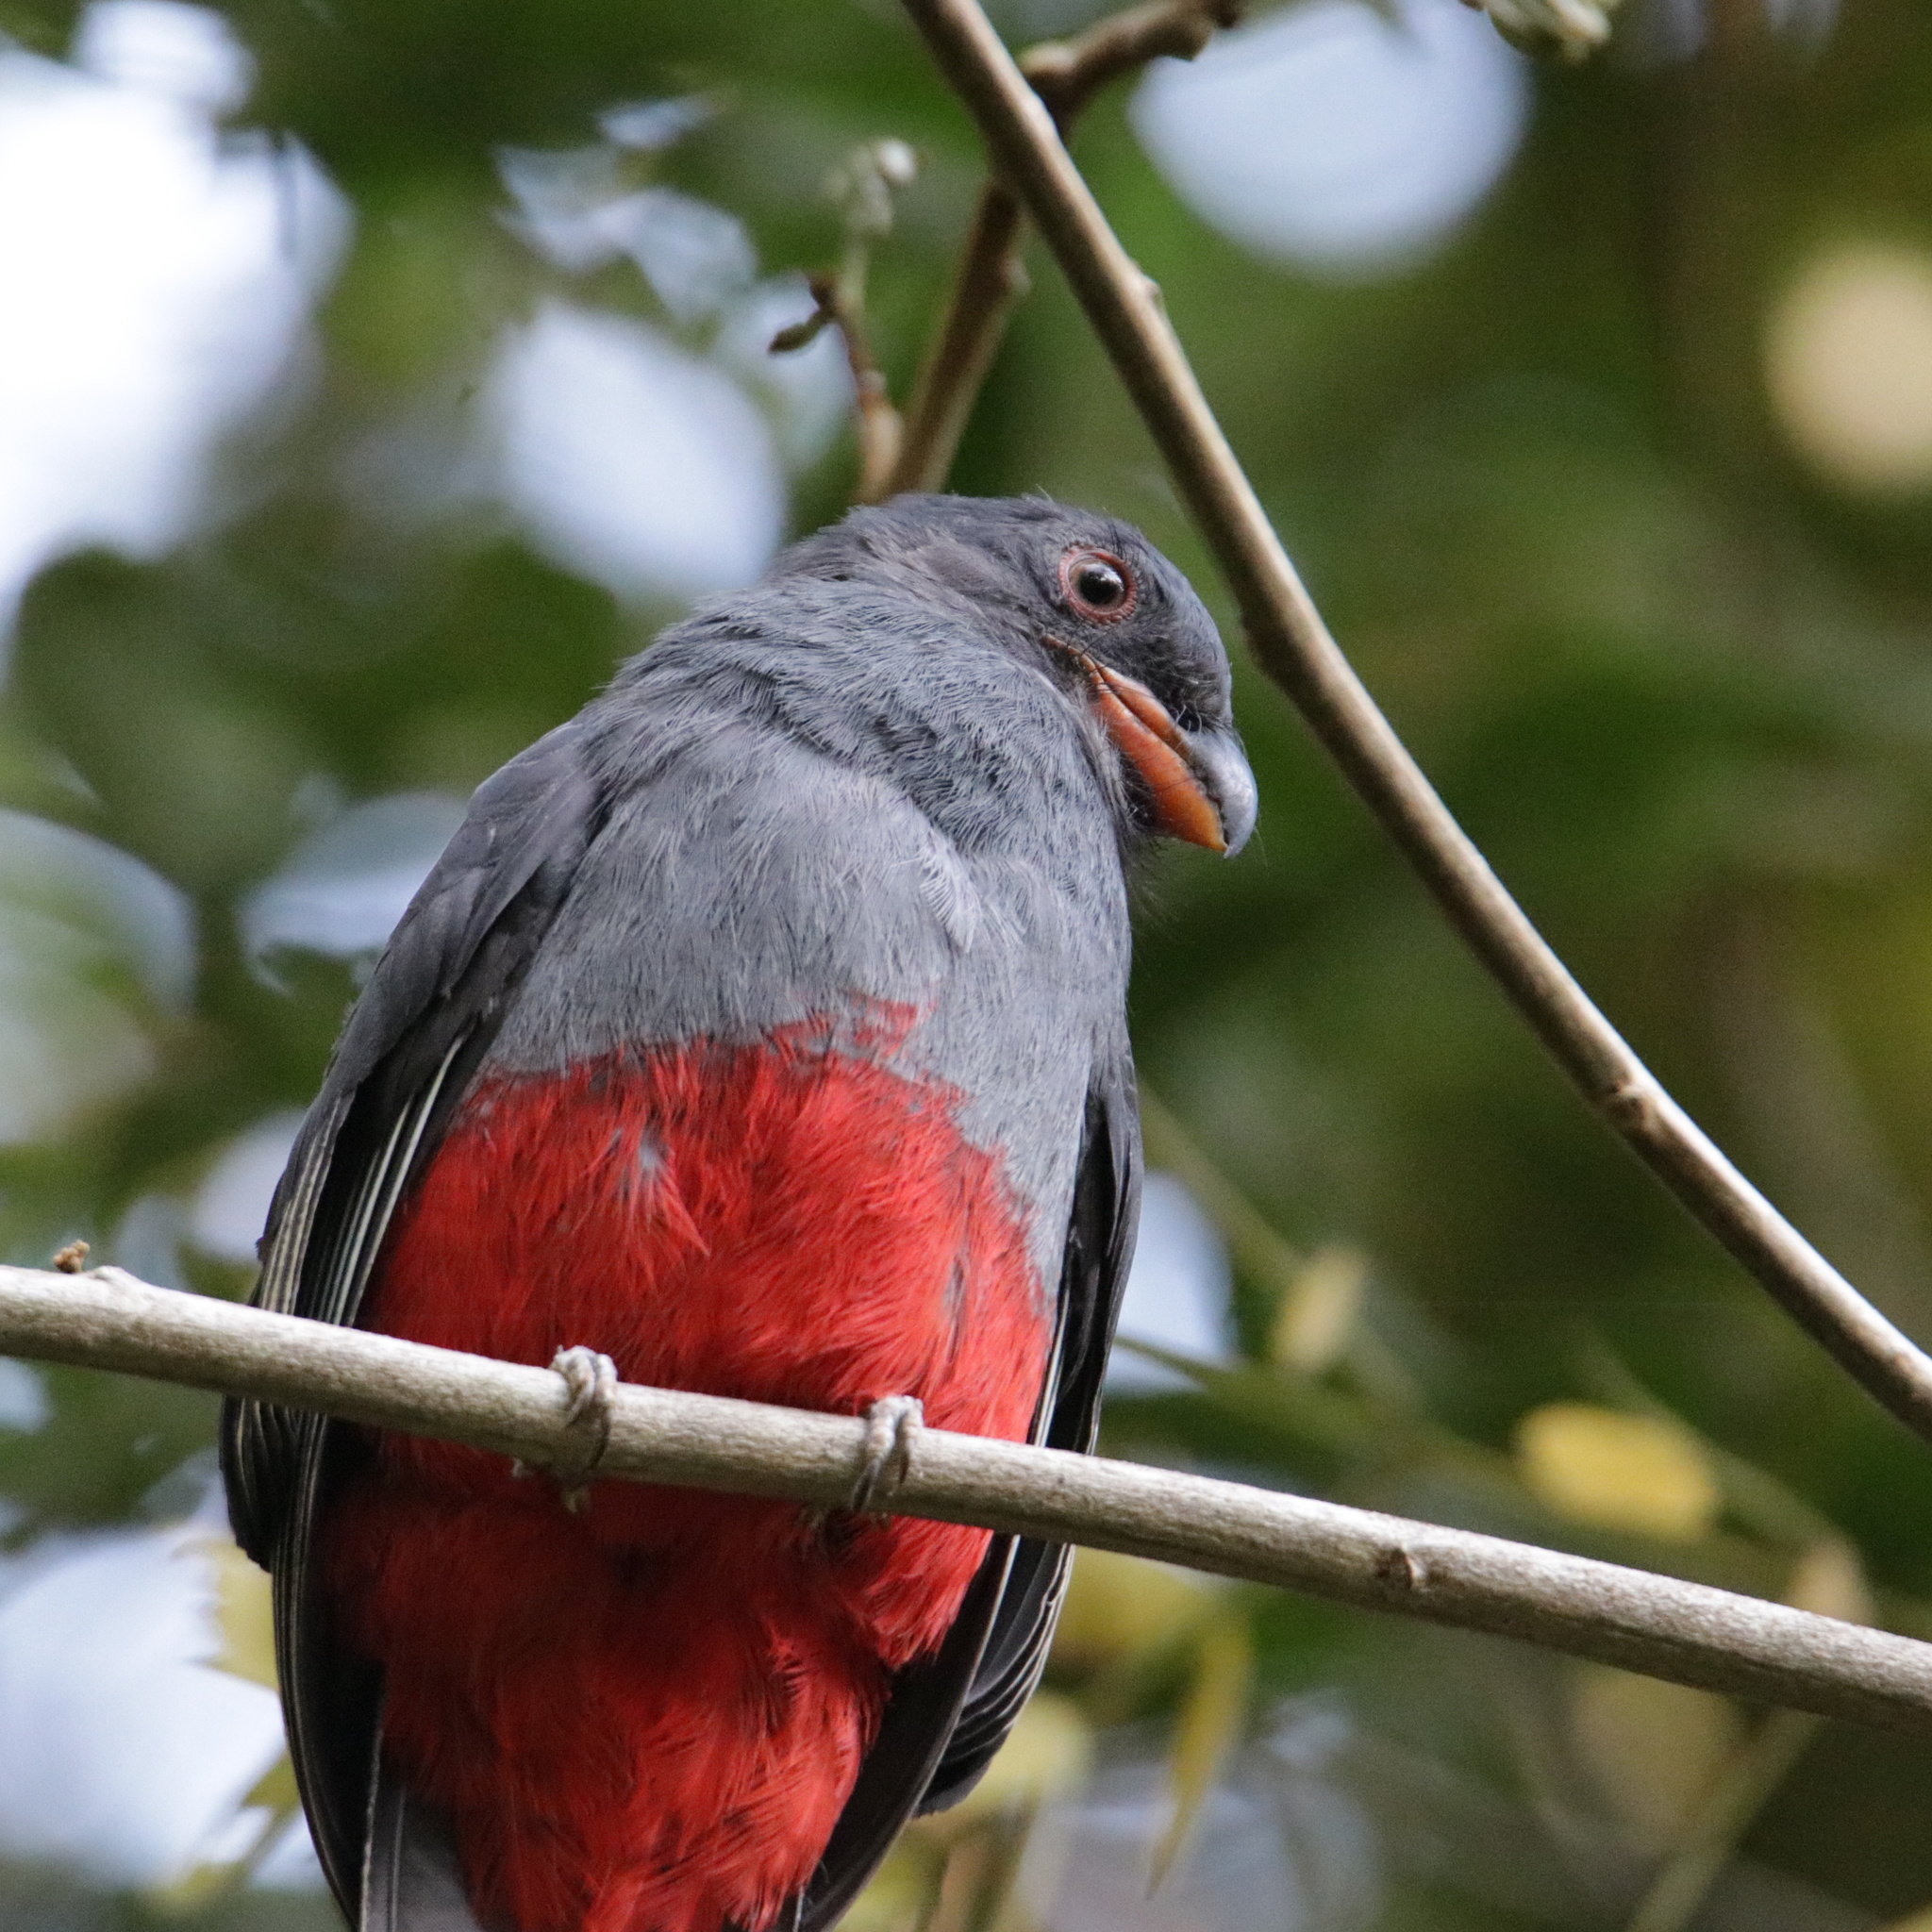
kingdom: Animalia
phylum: Chordata
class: Aves
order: Trogoniformes
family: Trogonidae
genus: Trogon
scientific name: Trogon massena
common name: Slaty-tailed trogon
